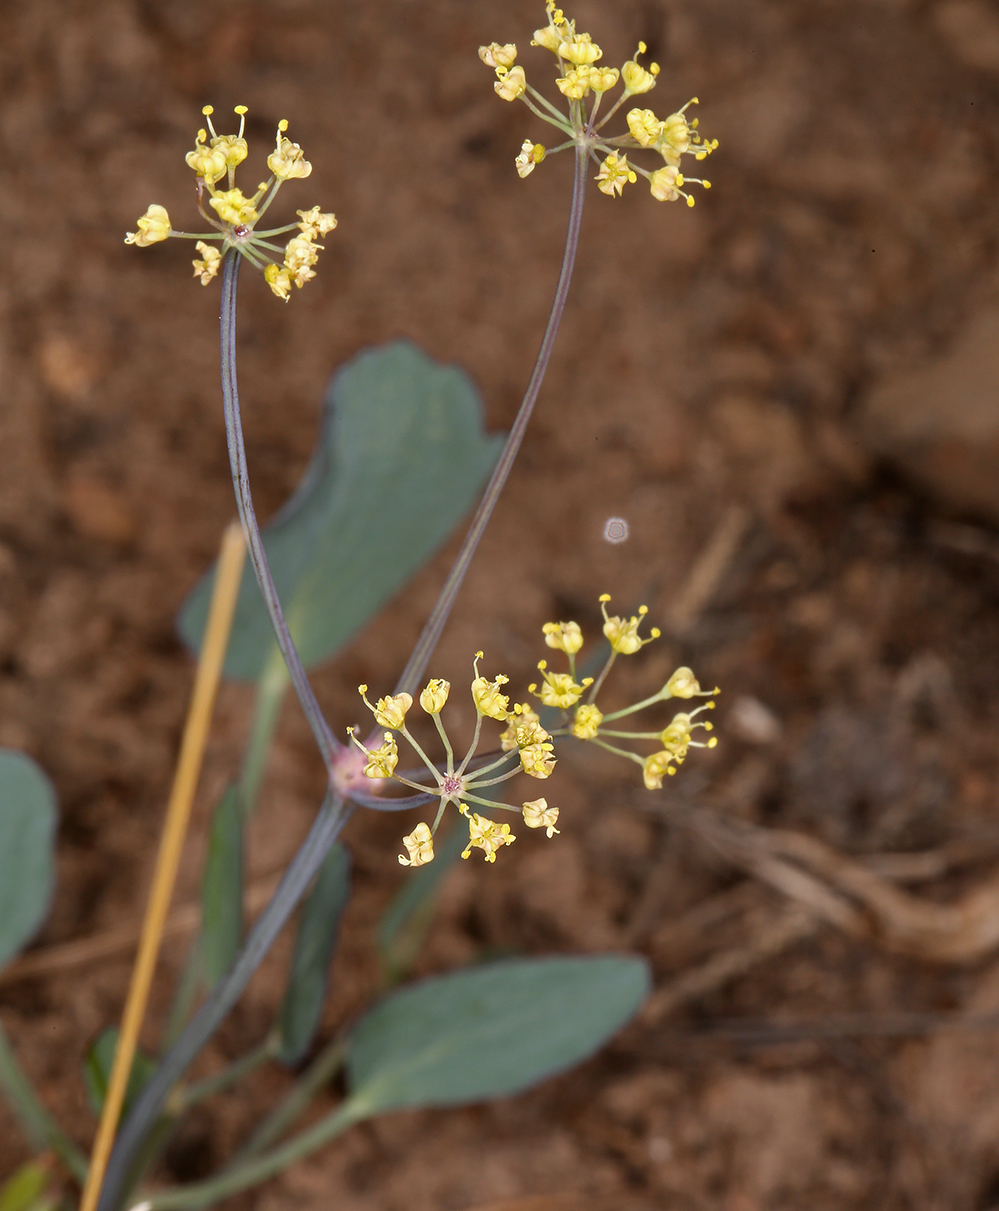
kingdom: Plantae
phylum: Tracheophyta
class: Magnoliopsida
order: Apiales
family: Apiaceae
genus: Lomatium
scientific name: Lomatium nudicaule
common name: Pestle lomatium
